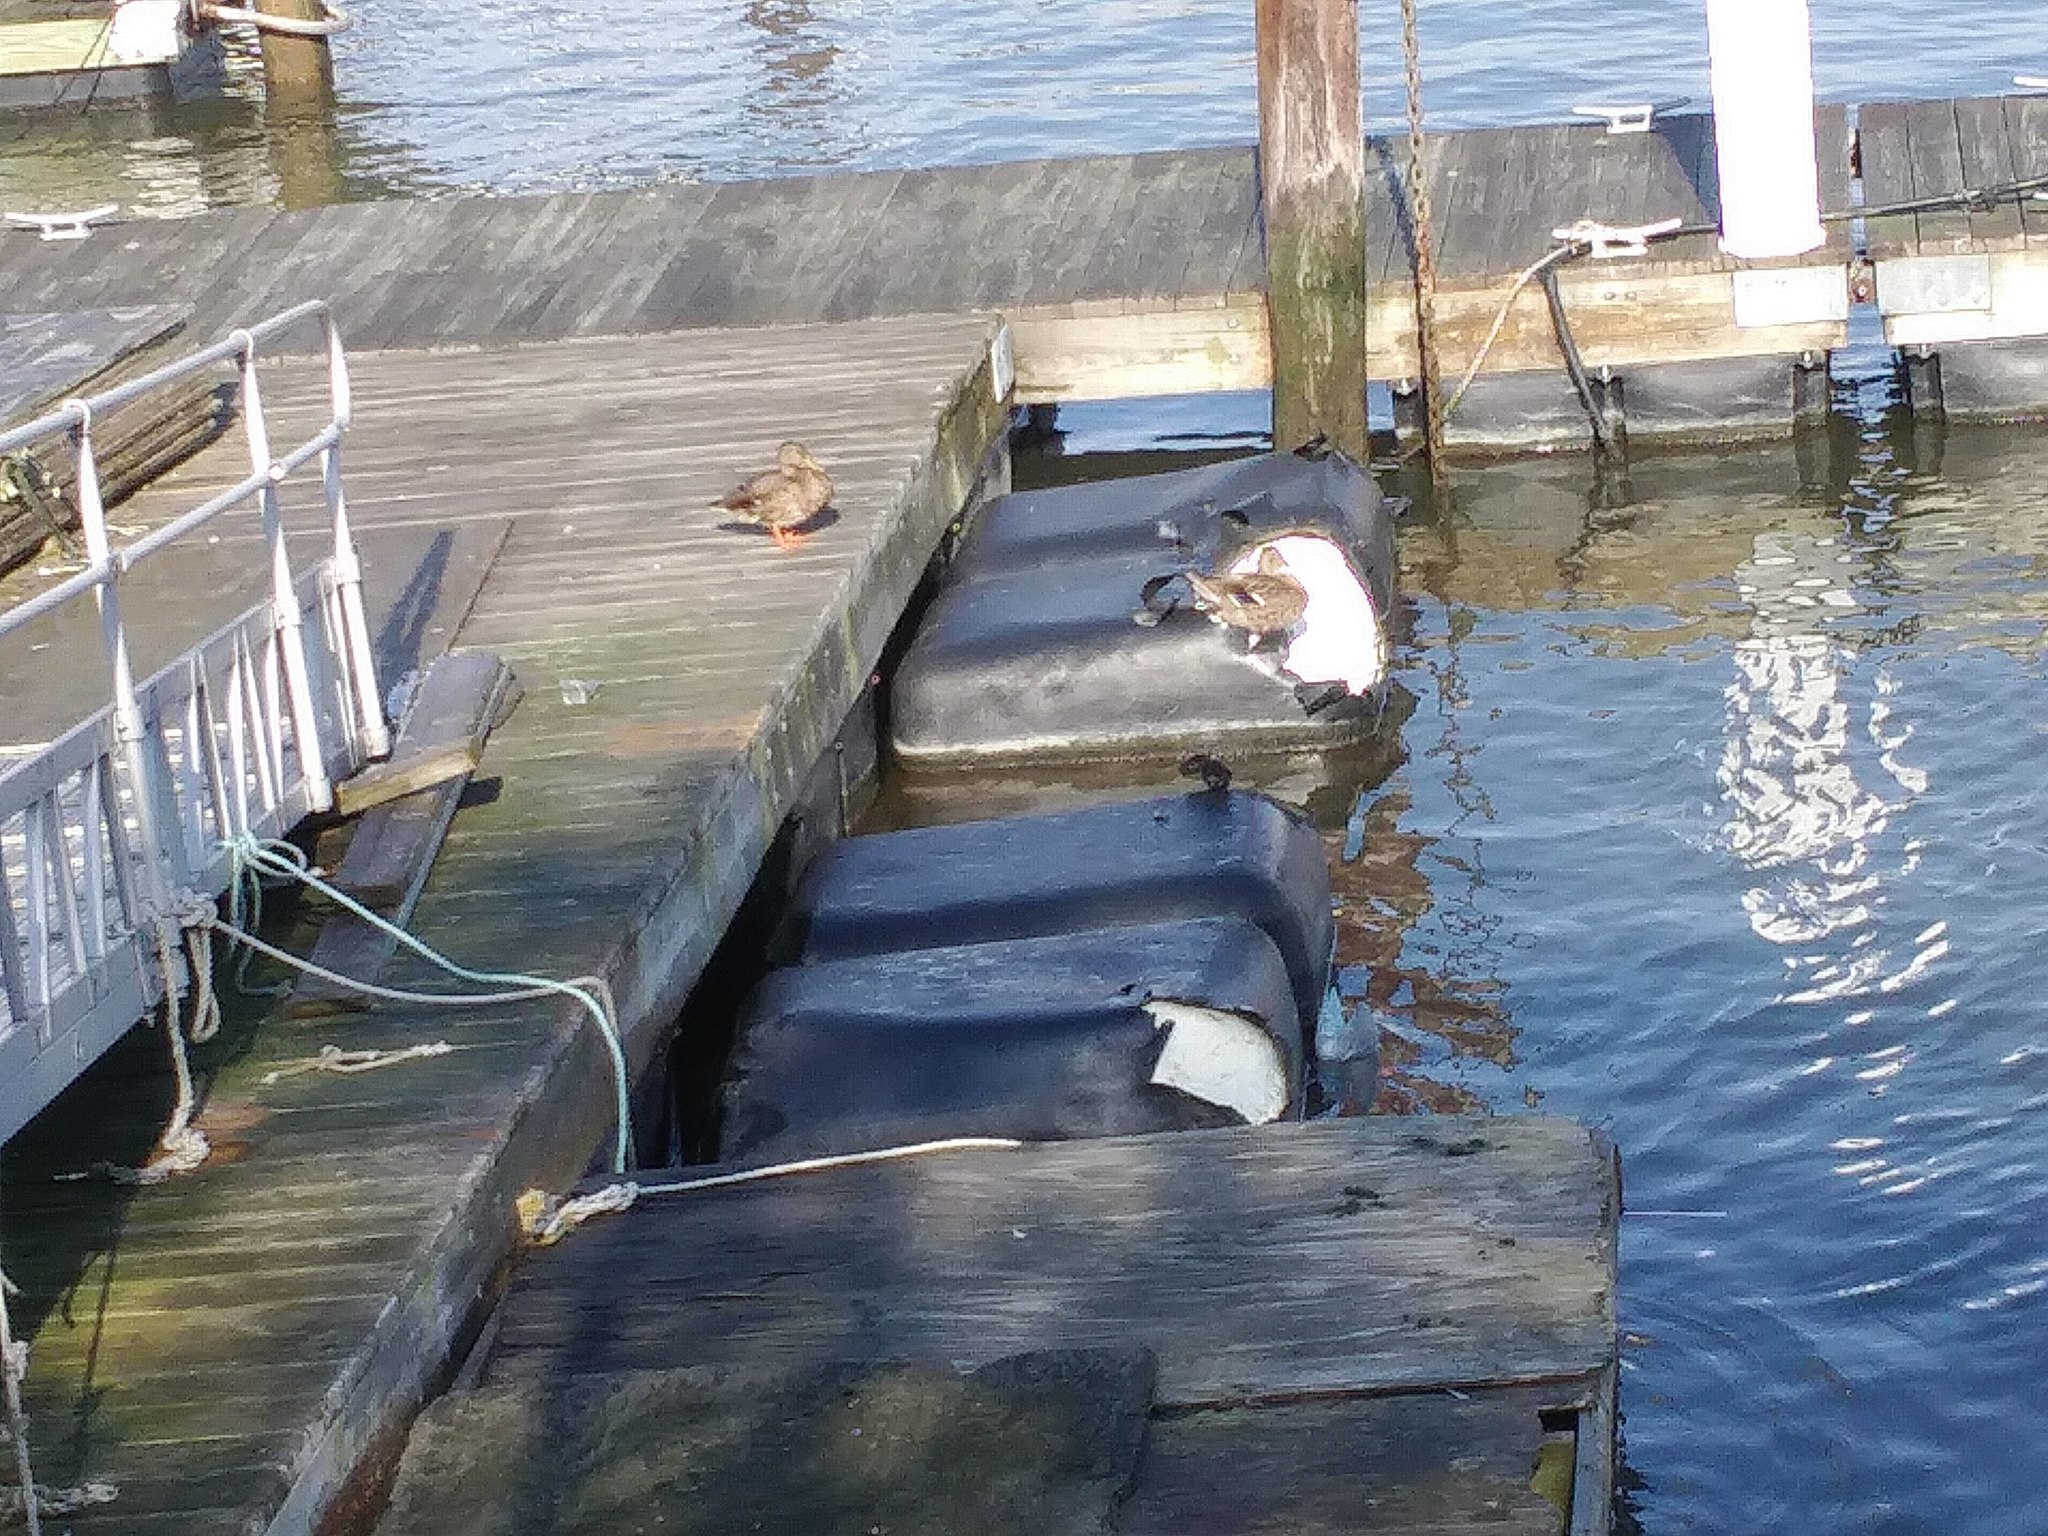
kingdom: Animalia
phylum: Chordata
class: Aves
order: Anseriformes
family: Anatidae
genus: Anas
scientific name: Anas platyrhynchos
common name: Mallard
